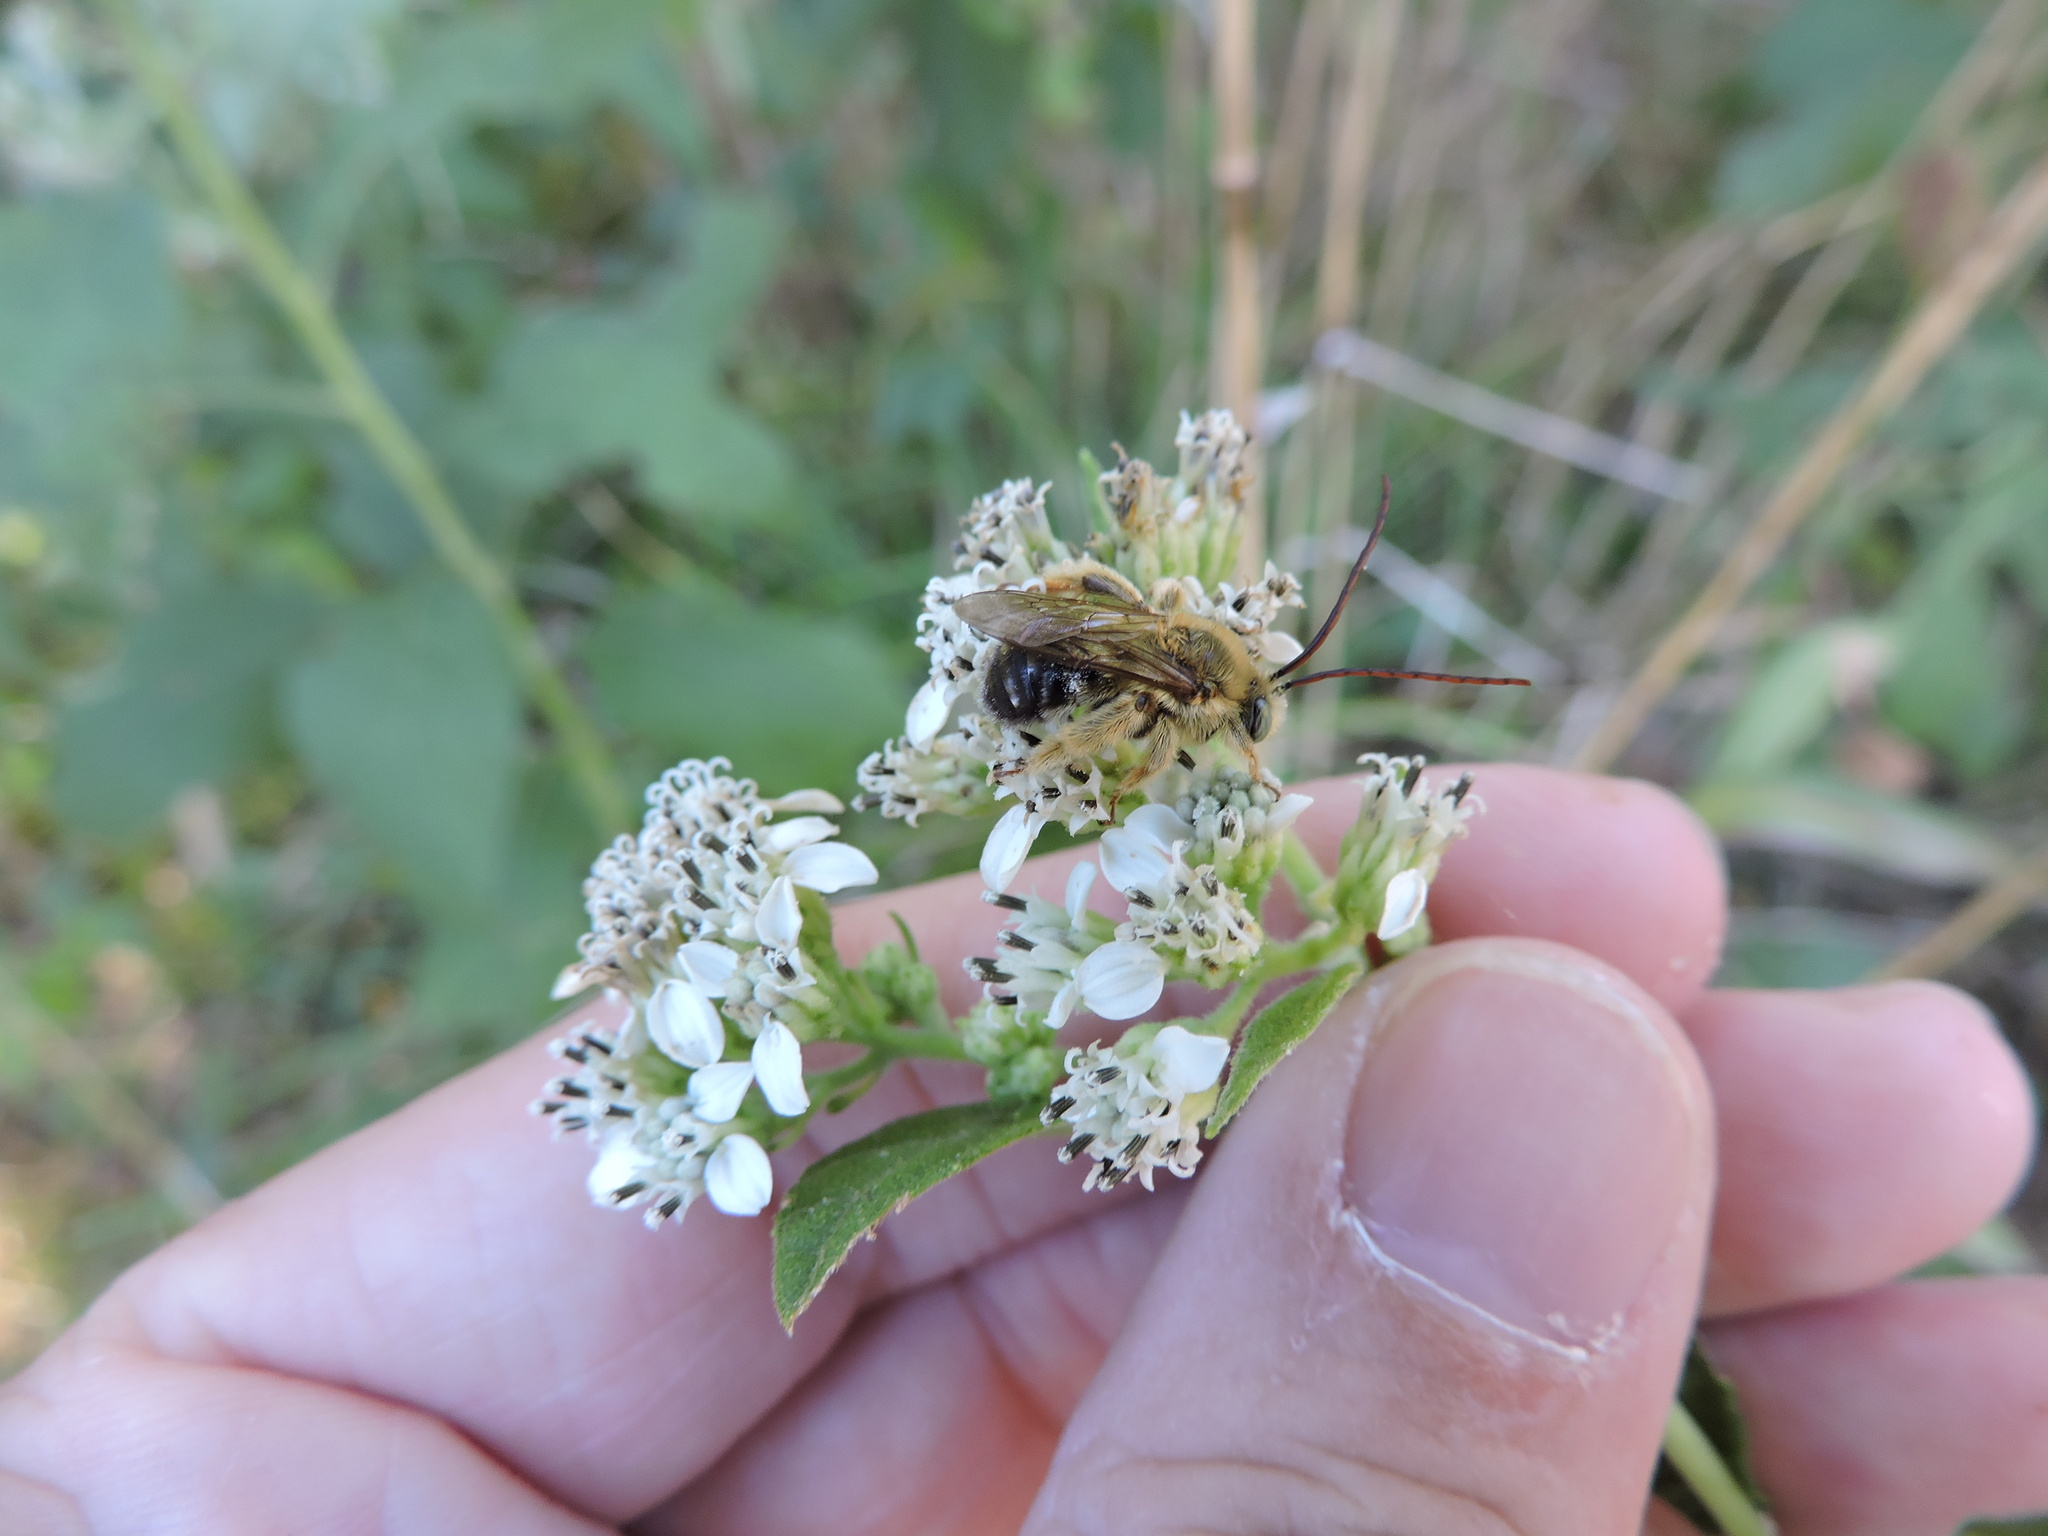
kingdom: Animalia
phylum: Arthropoda
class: Insecta
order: Hymenoptera
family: Apidae
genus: Melissodes
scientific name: Melissodes communis
